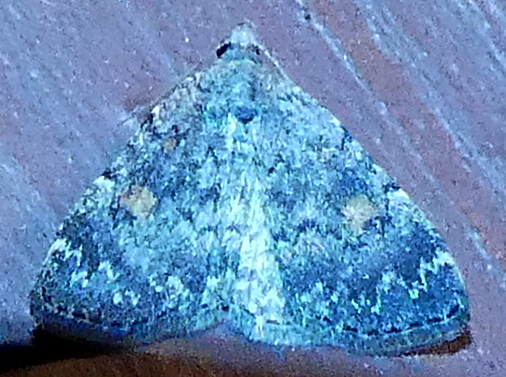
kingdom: Animalia
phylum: Arthropoda
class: Insecta
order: Lepidoptera
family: Erebidae
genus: Idia
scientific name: Idia aemula
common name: Common idia moth
